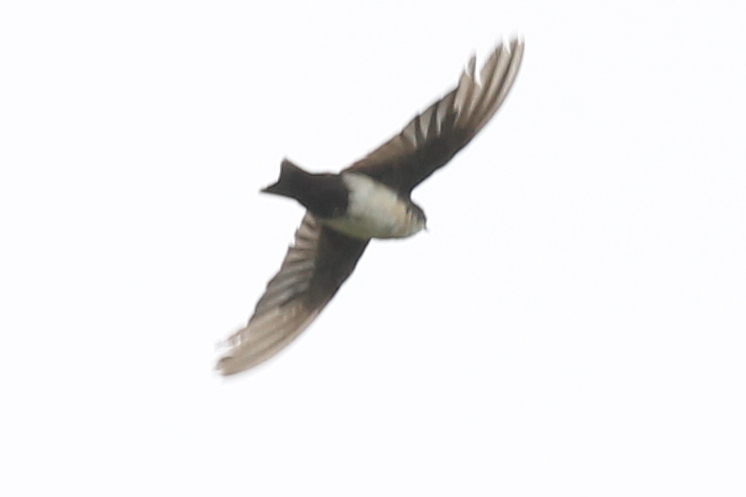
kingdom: Animalia
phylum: Chordata
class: Aves
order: Passeriformes
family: Hirundinidae
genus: Notiochelidon
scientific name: Notiochelidon cyanoleuca
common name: Blue-and-white swallow
